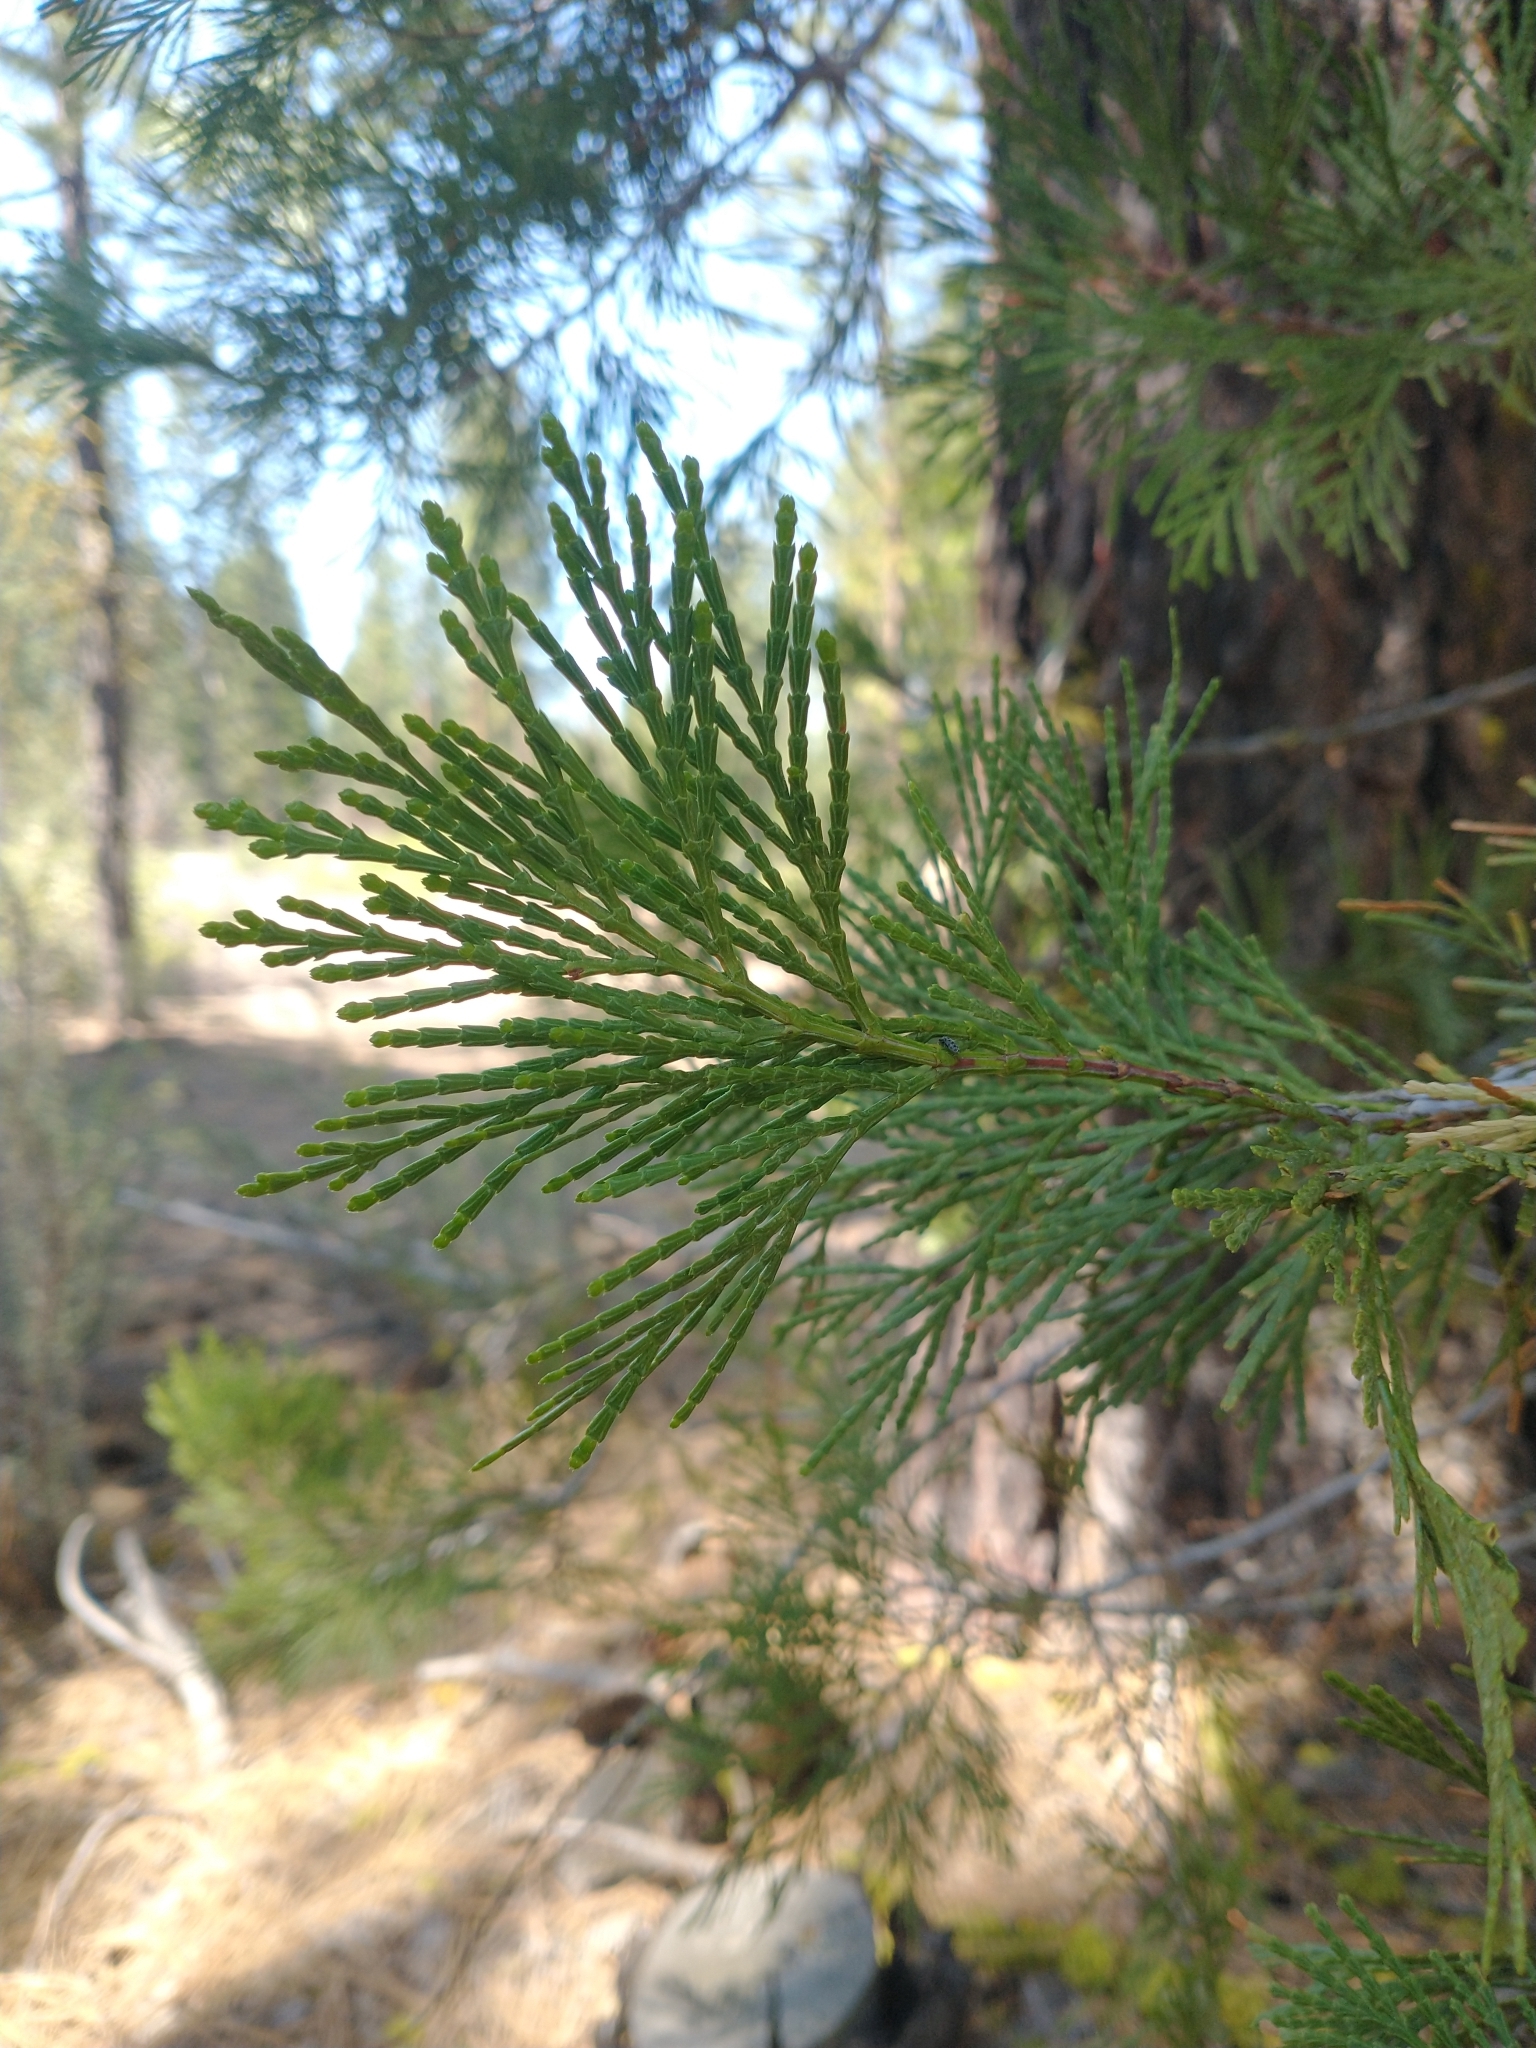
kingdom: Plantae
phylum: Tracheophyta
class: Pinopsida
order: Pinales
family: Cupressaceae
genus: Calocedrus
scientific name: Calocedrus decurrens
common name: Californian incense-cedar
